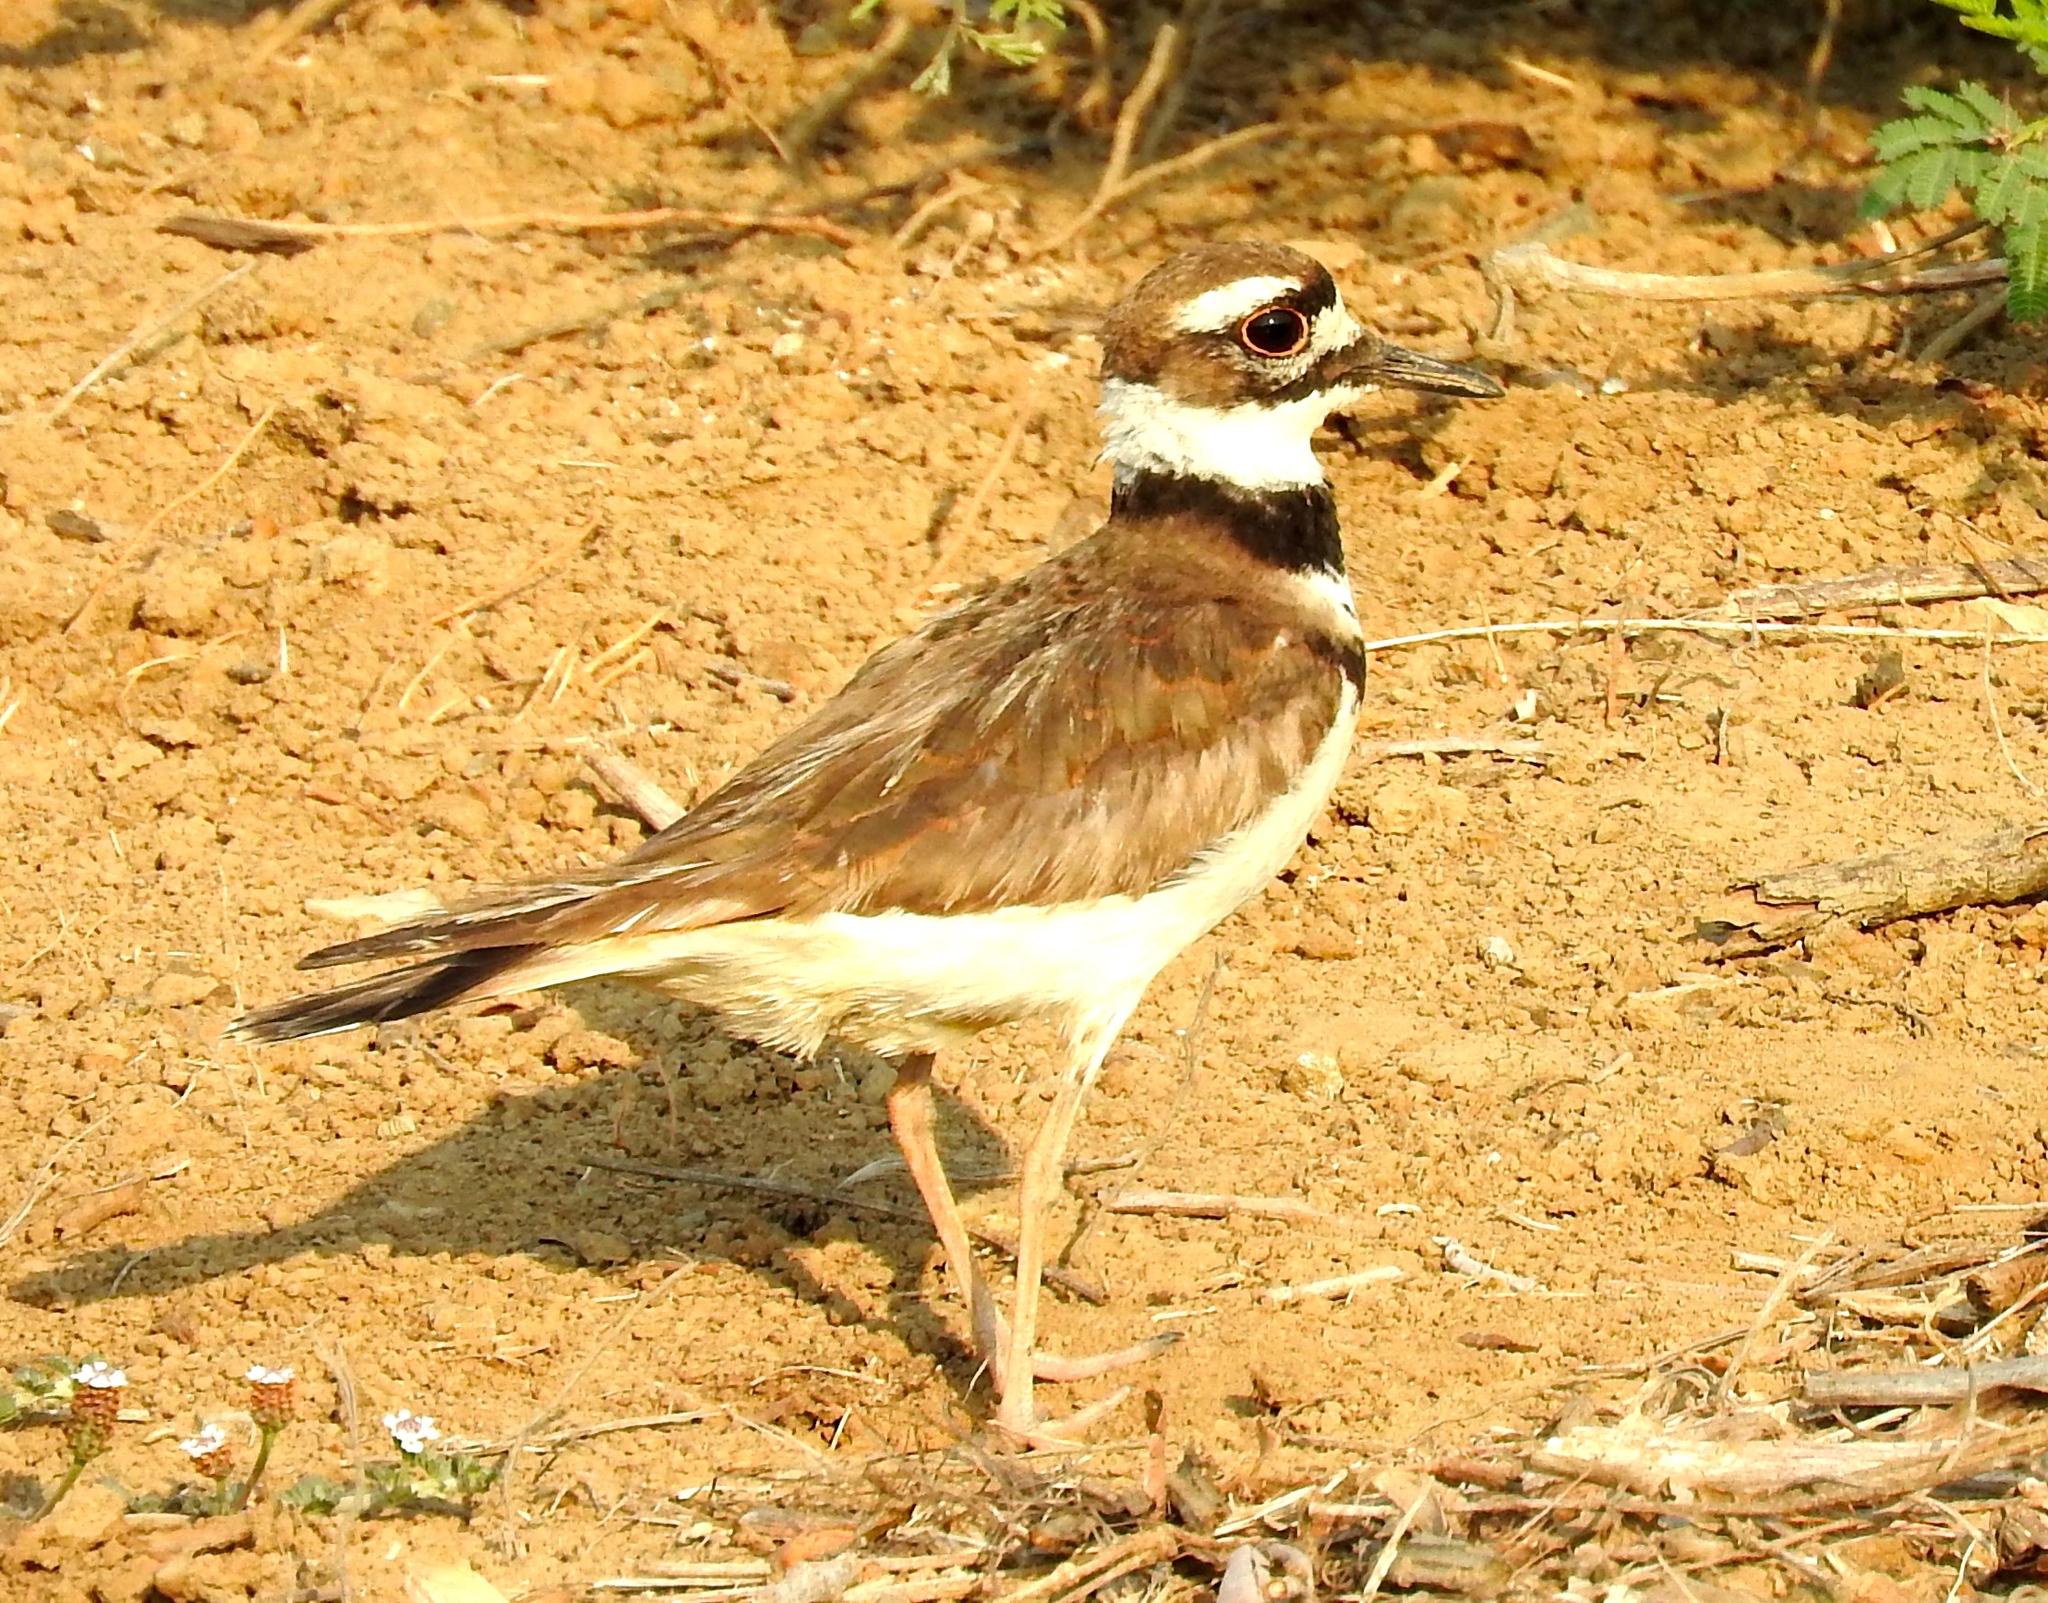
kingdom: Animalia
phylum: Chordata
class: Aves
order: Charadriiformes
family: Charadriidae
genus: Charadrius
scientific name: Charadrius vociferus
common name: Killdeer
